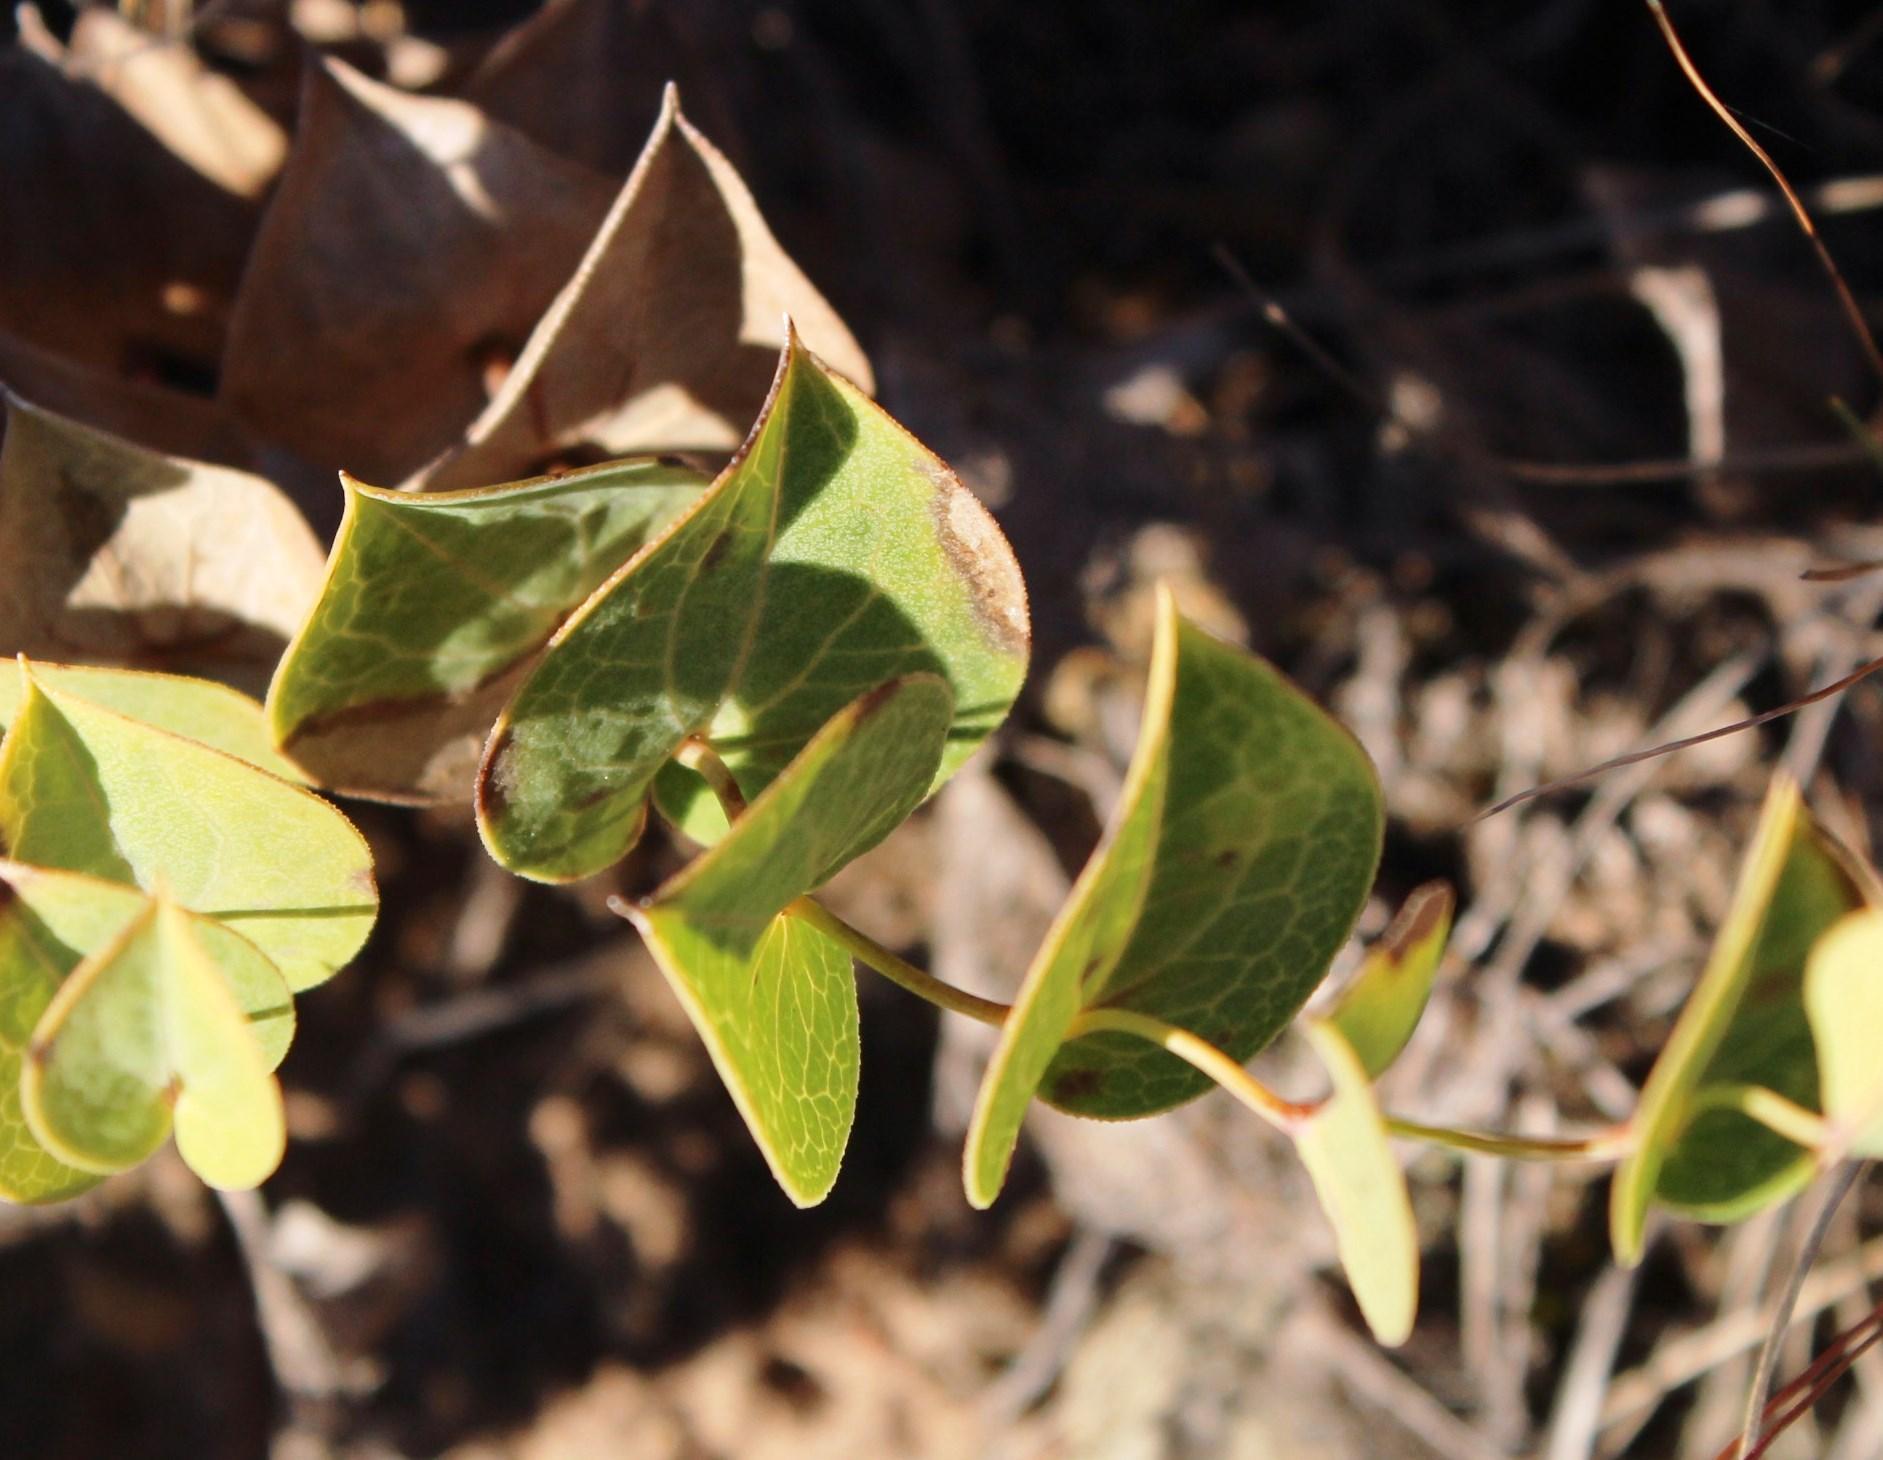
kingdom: Plantae
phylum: Tracheophyta
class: Magnoliopsida
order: Asterales
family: Asteraceae
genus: Afroaster
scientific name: Afroaster perfoliatus
